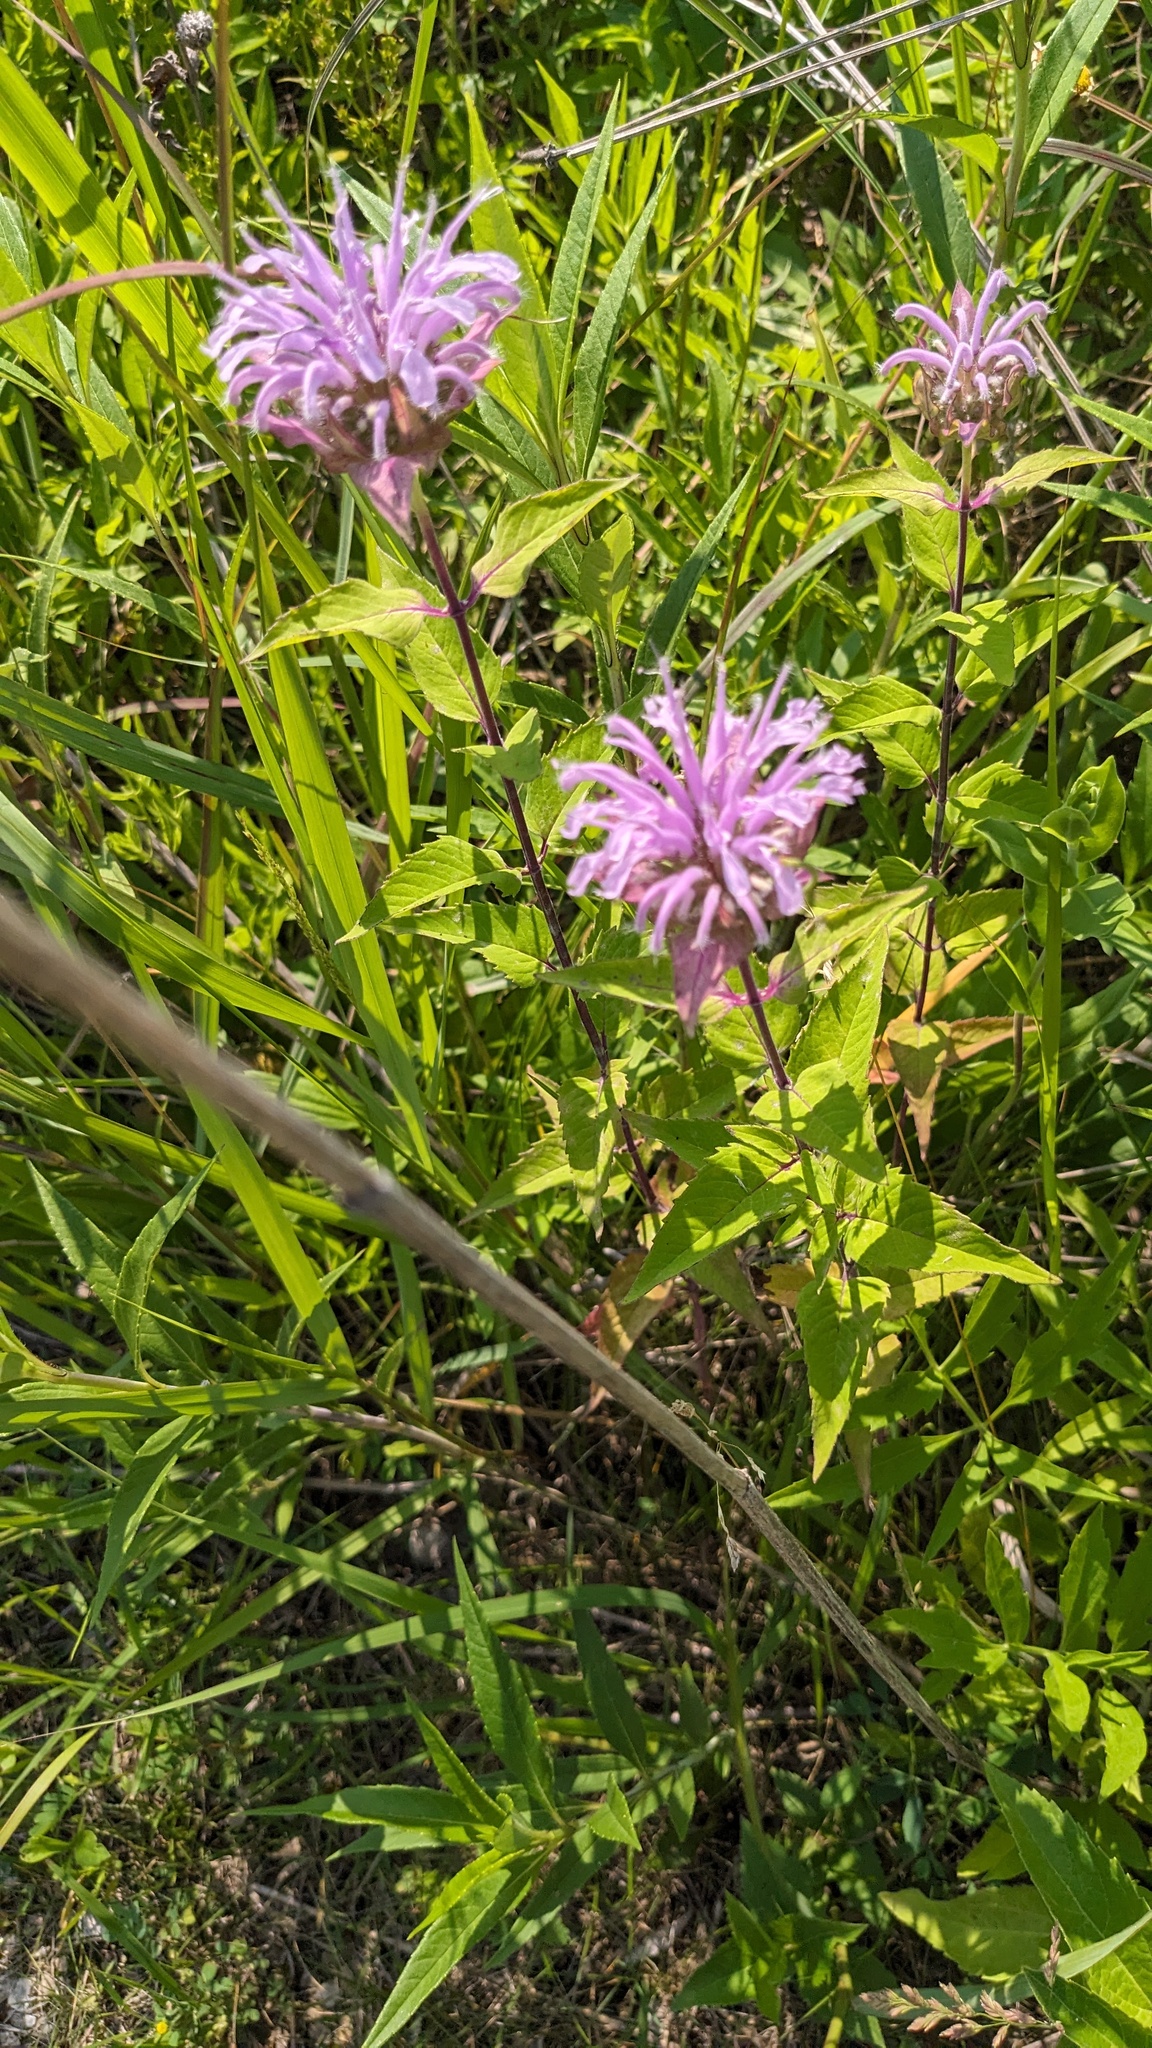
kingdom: Plantae
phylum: Tracheophyta
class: Magnoliopsida
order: Lamiales
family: Lamiaceae
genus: Monarda
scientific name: Monarda fistulosa
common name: Purple beebalm
